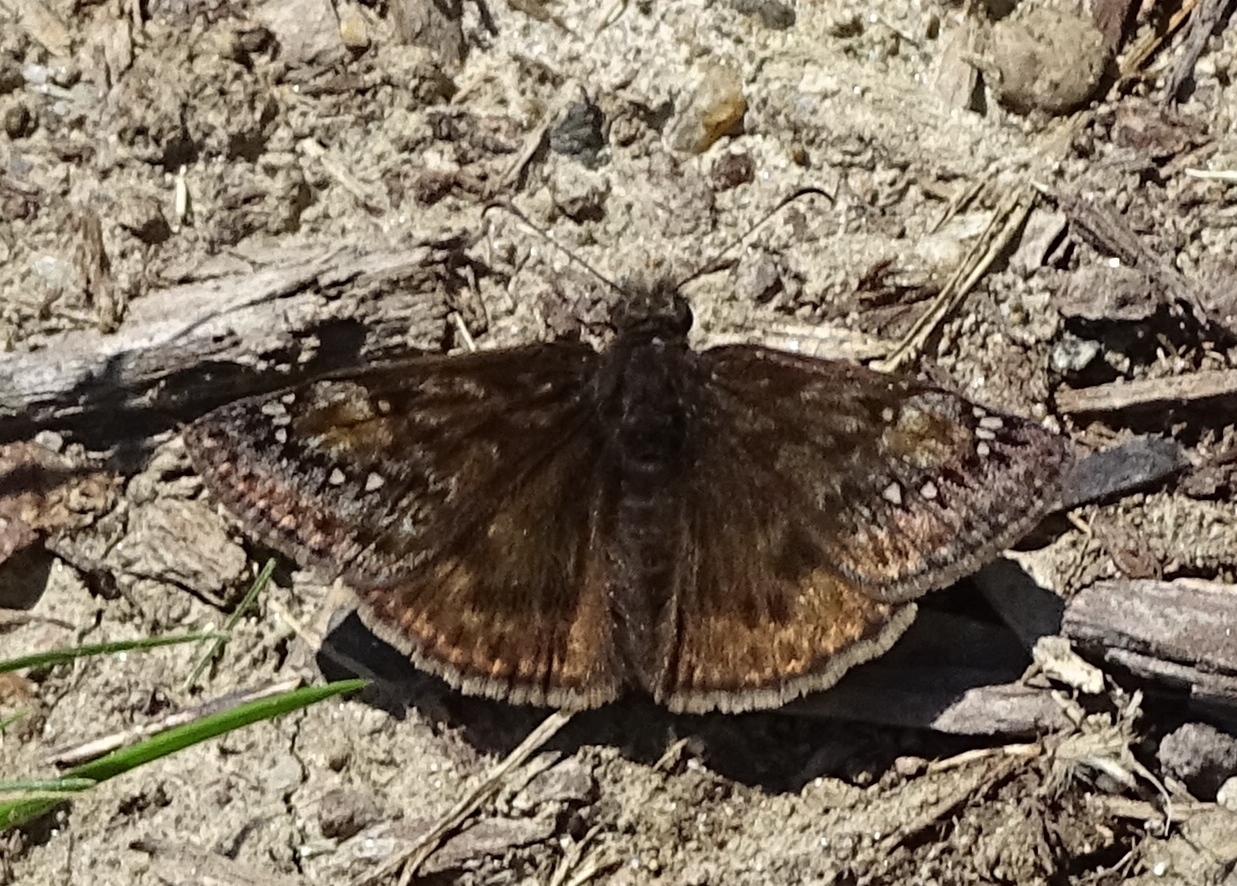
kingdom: Animalia
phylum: Arthropoda
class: Insecta
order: Lepidoptera
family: Hesperiidae
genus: Erynnis
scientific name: Erynnis juvenalis
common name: Juvenal's duskywing
